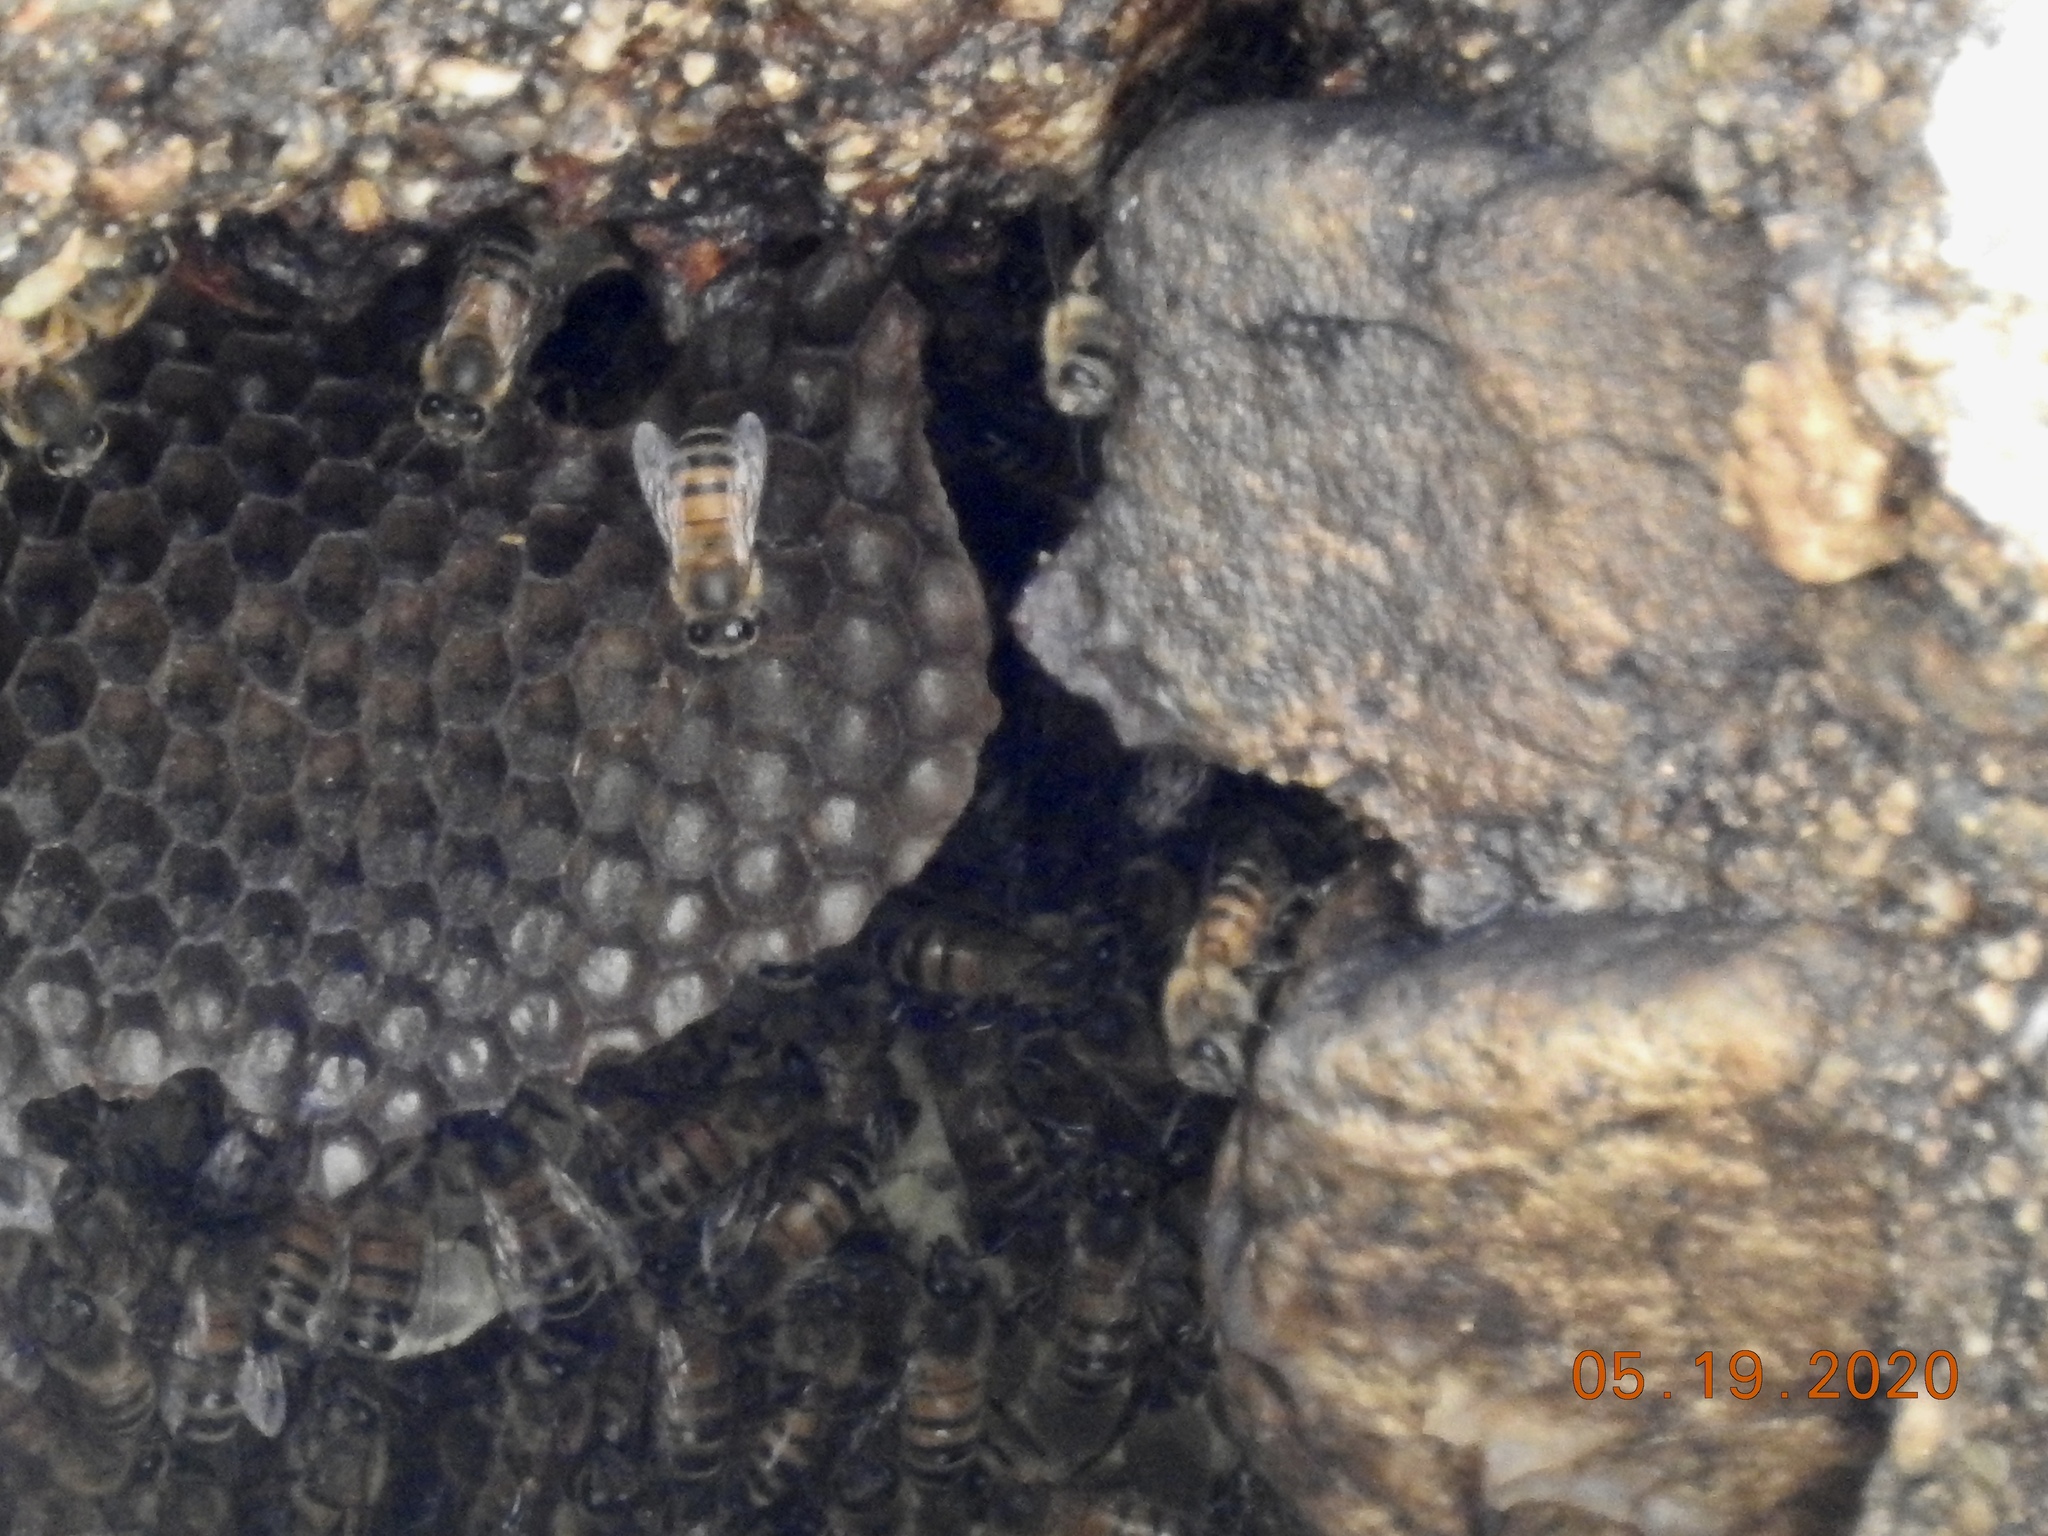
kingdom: Animalia
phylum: Arthropoda
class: Insecta
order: Hymenoptera
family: Apidae
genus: Apis
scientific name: Apis mellifera
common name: Honey bee
